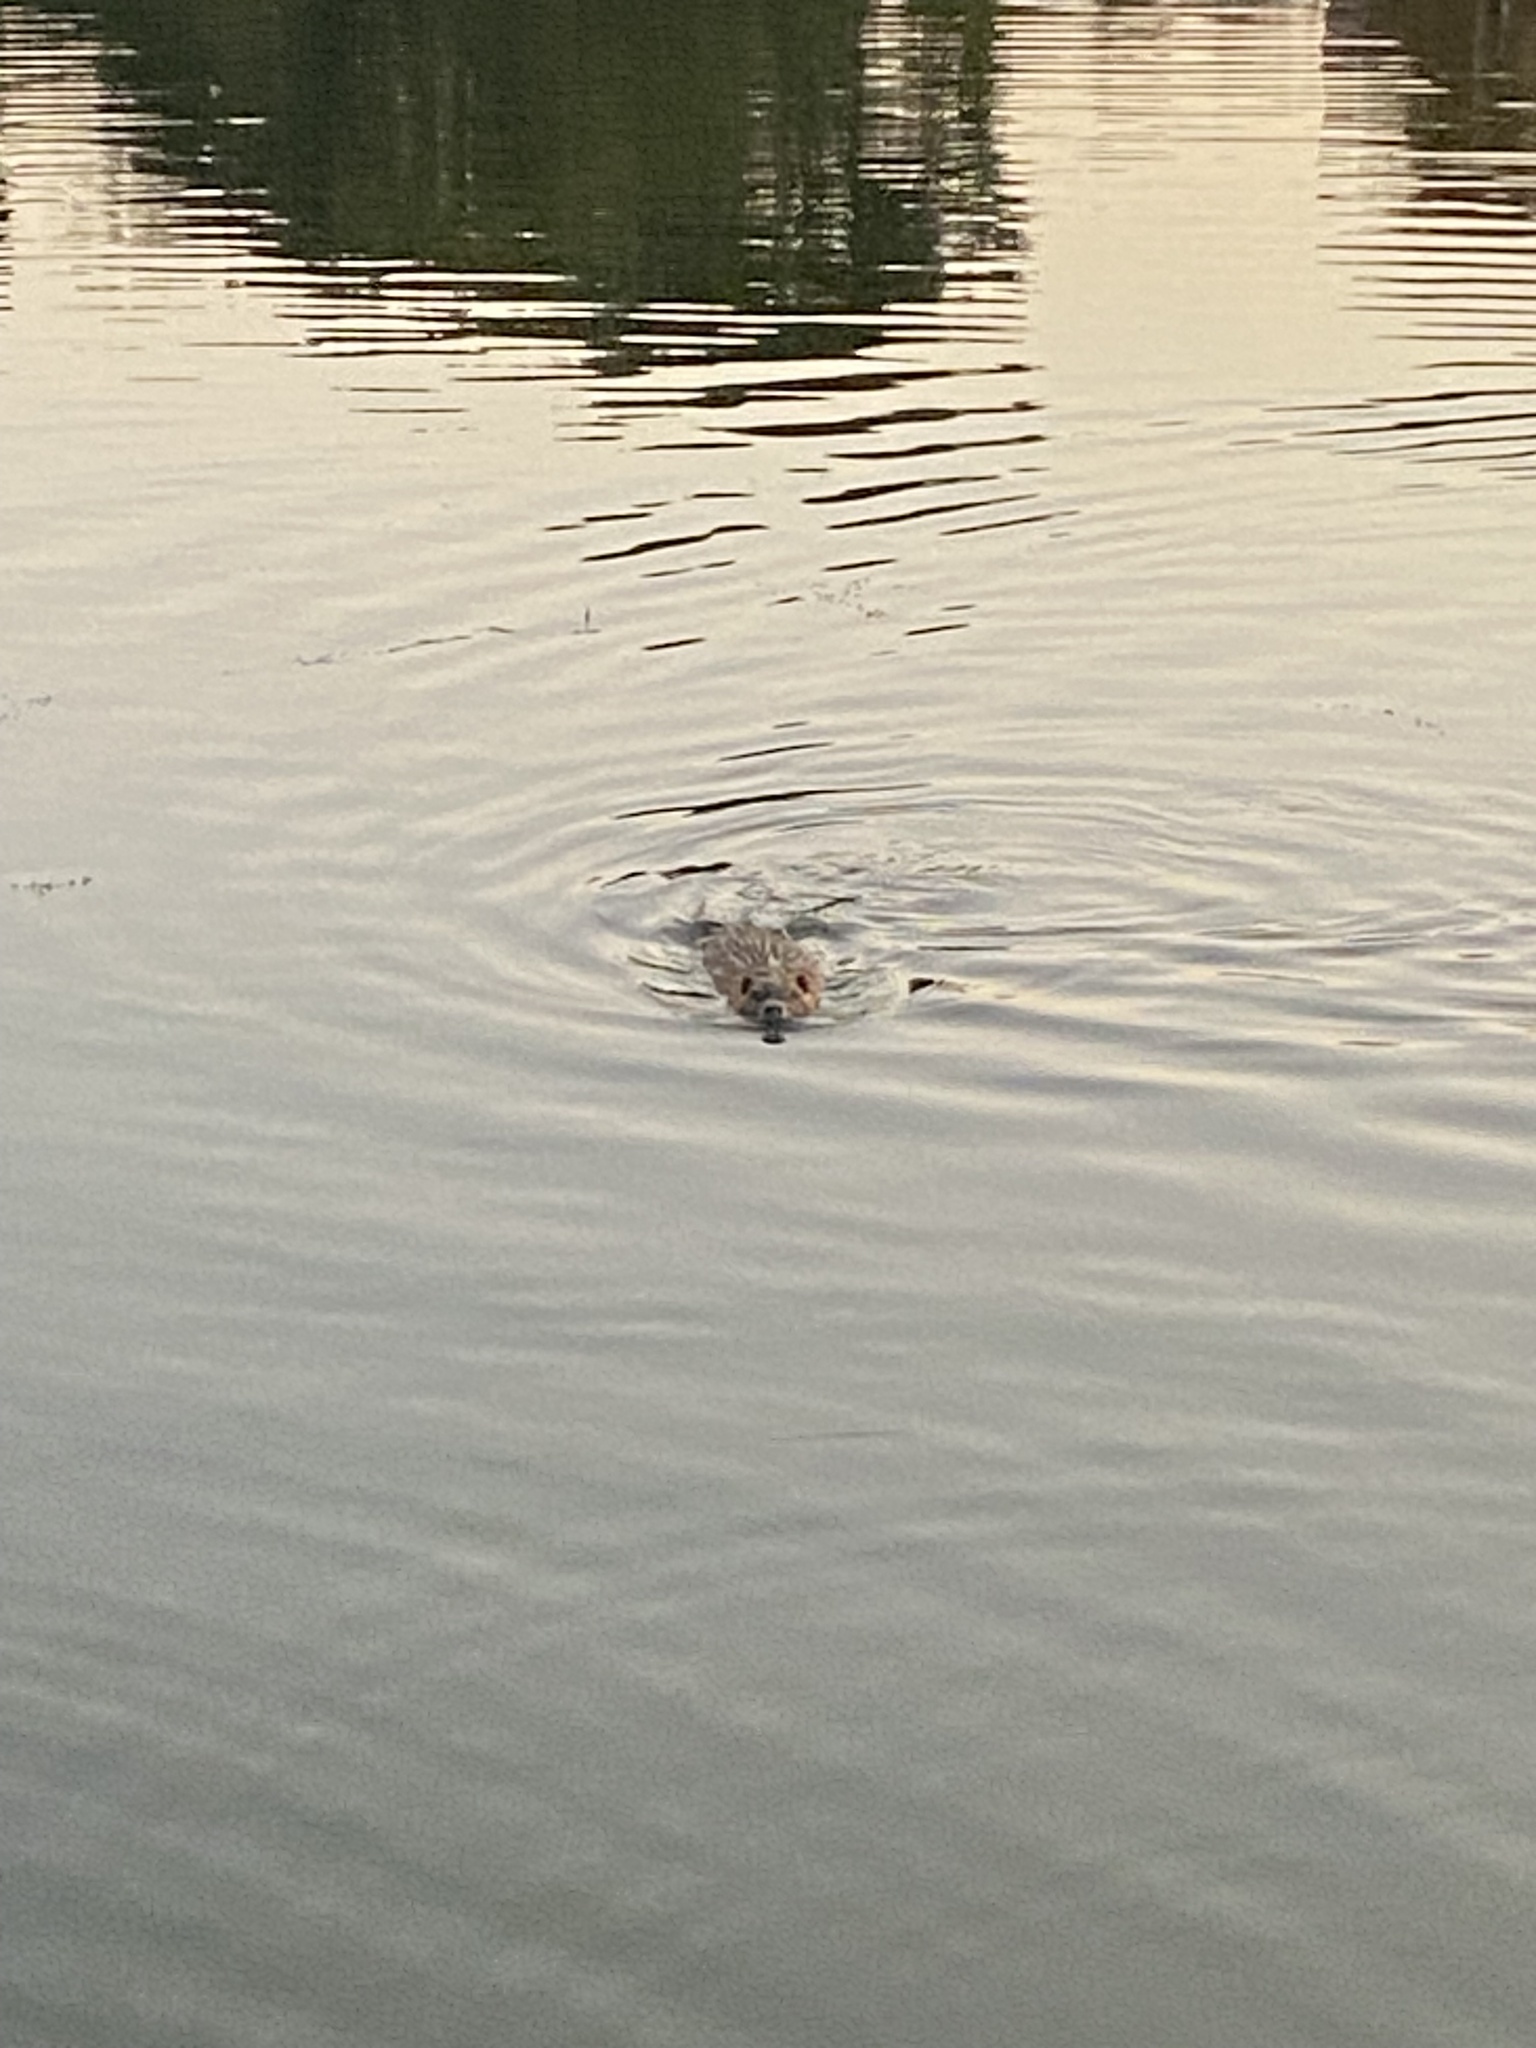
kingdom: Animalia
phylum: Chordata
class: Mammalia
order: Rodentia
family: Myocastoridae
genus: Myocastor
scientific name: Myocastor coypus
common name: Coypu
